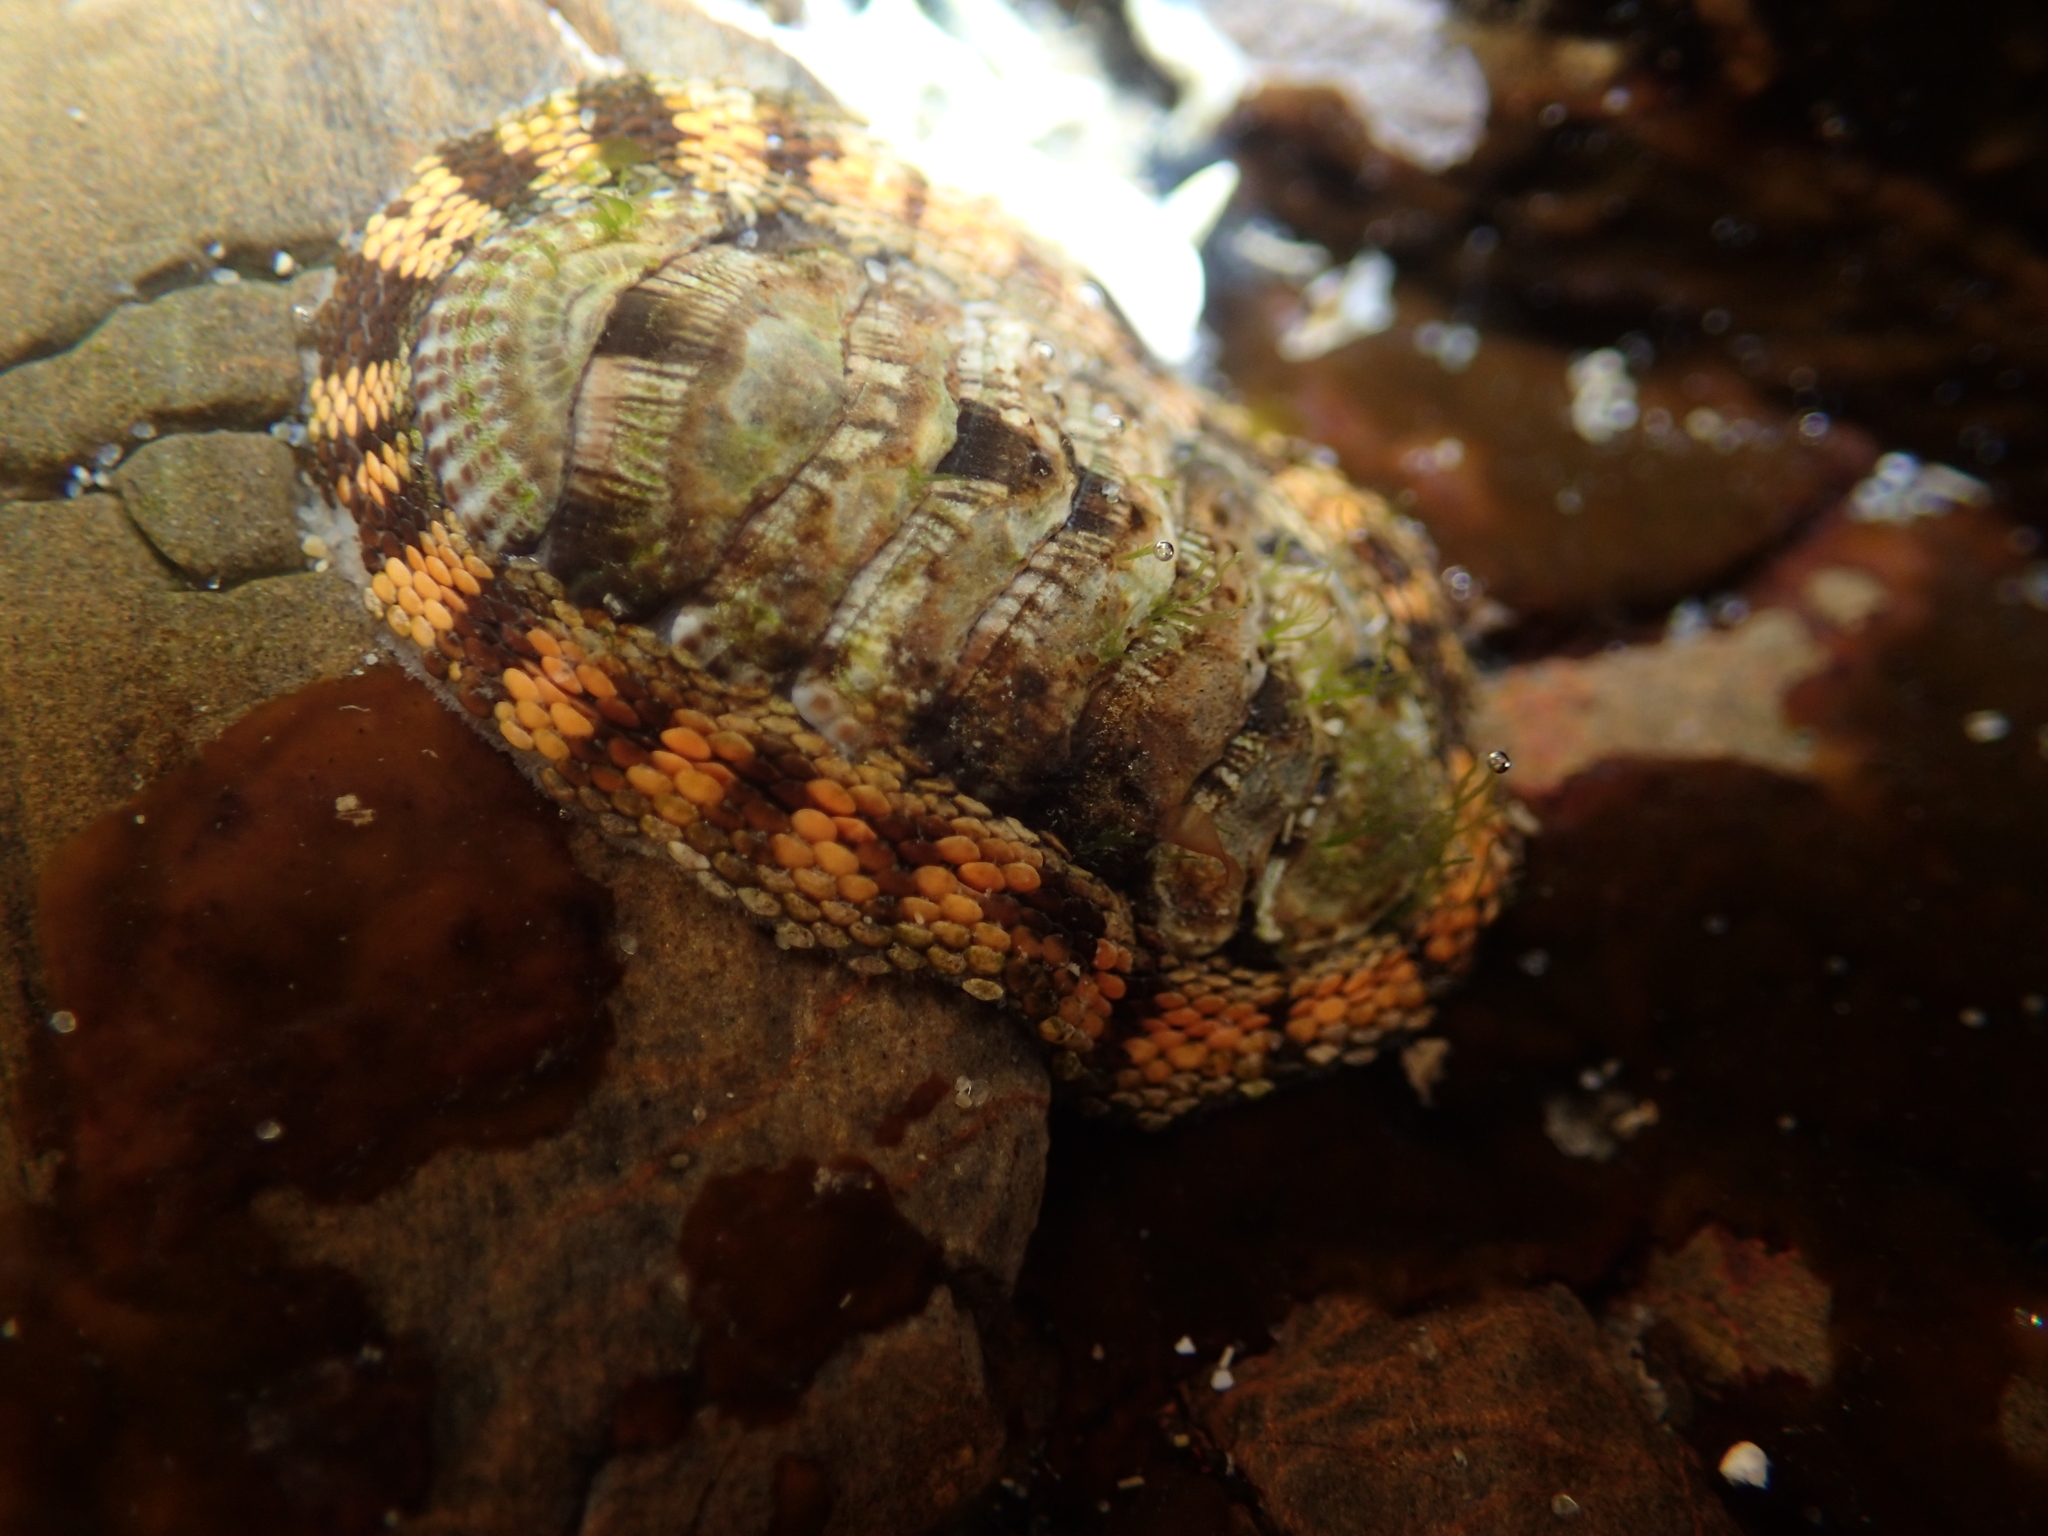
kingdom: Animalia
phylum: Mollusca
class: Polyplacophora
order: Chitonida
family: Chitonidae
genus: Sypharochiton
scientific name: Sypharochiton pelliserpentis
